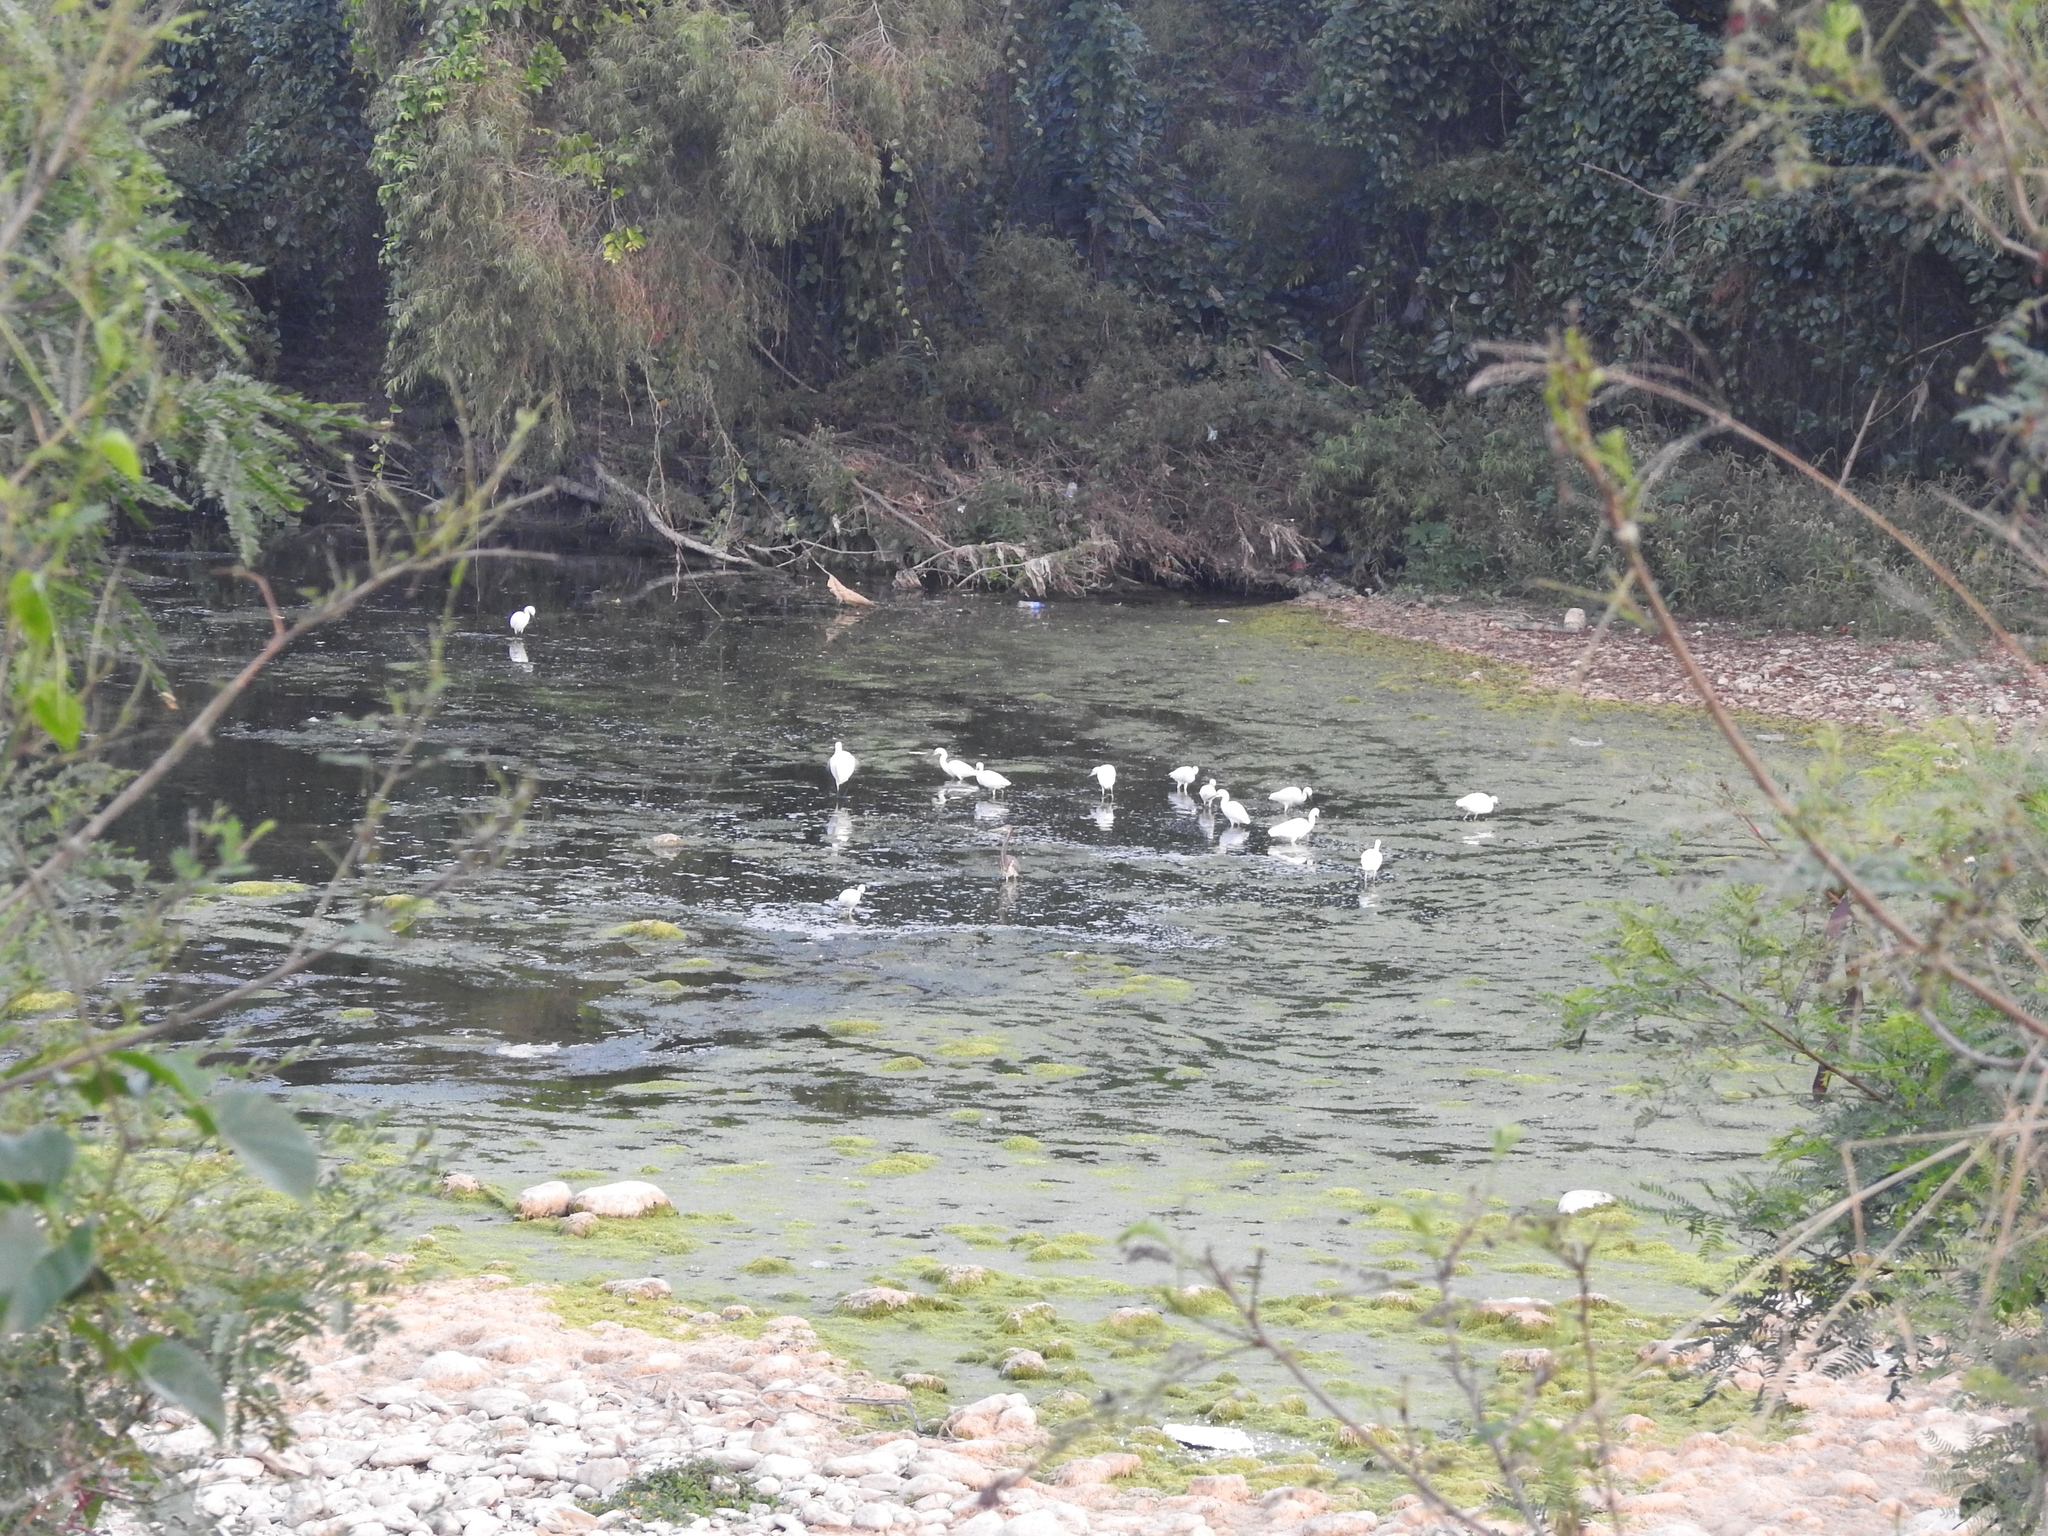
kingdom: Animalia
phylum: Chordata
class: Aves
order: Pelecaniformes
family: Ardeidae
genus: Egretta
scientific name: Egretta thula
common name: Snowy egret
